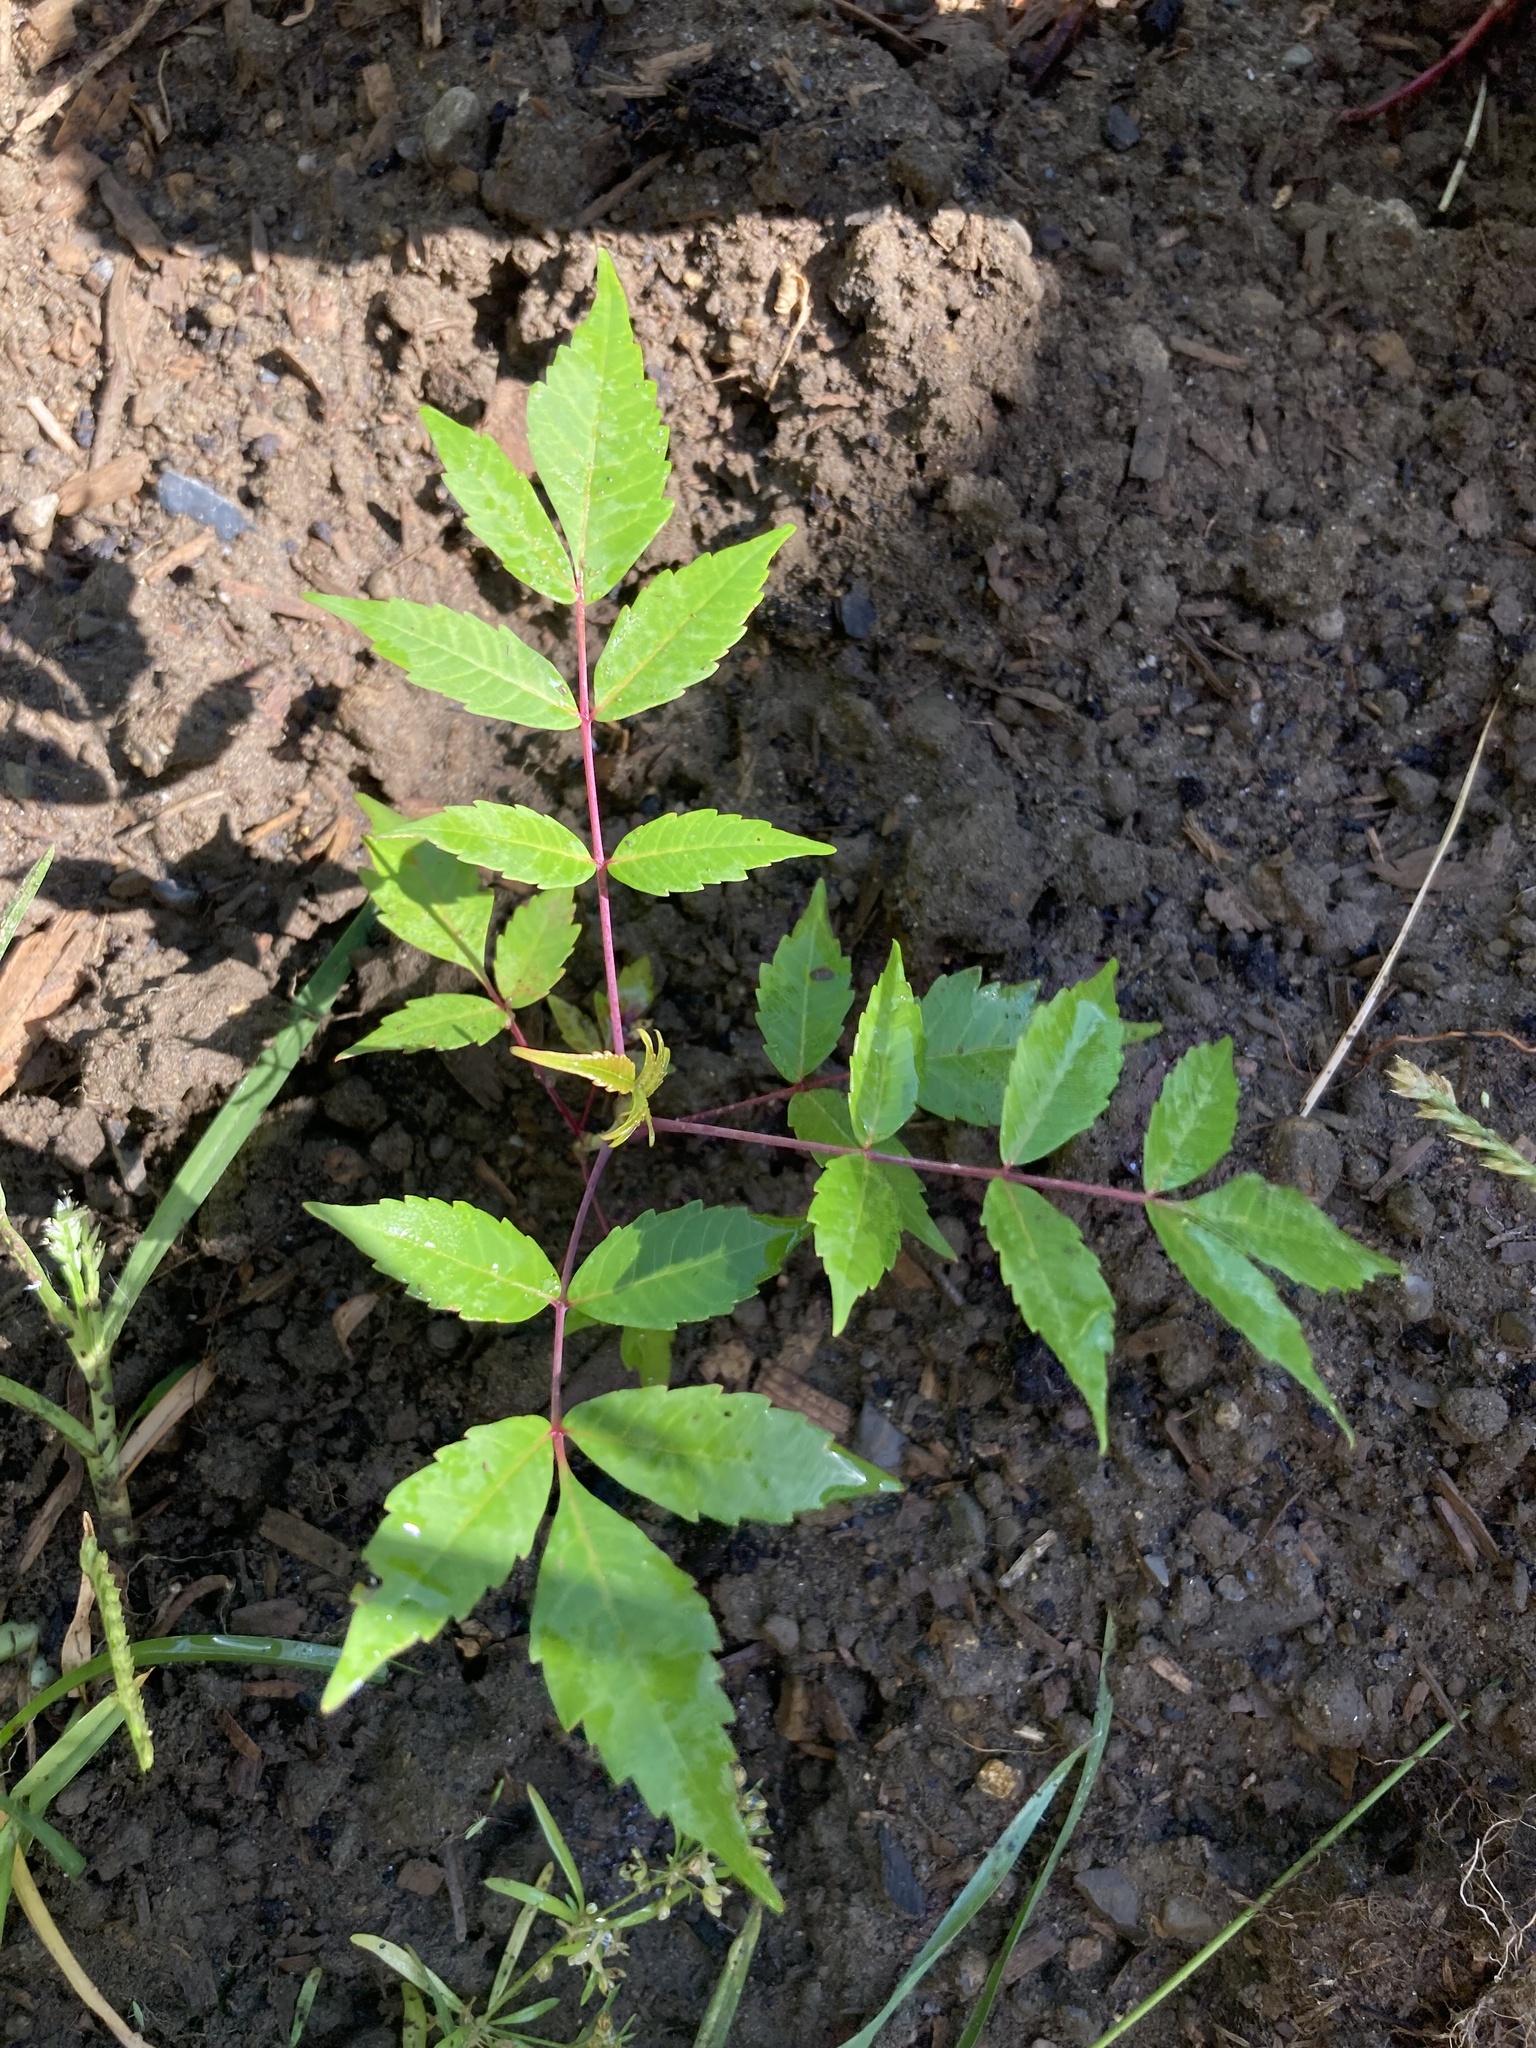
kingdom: Plantae
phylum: Tracheophyta
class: Magnoliopsida
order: Sapindales
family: Anacardiaceae
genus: Rhus
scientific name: Rhus glabra
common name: Scarlet sumac
